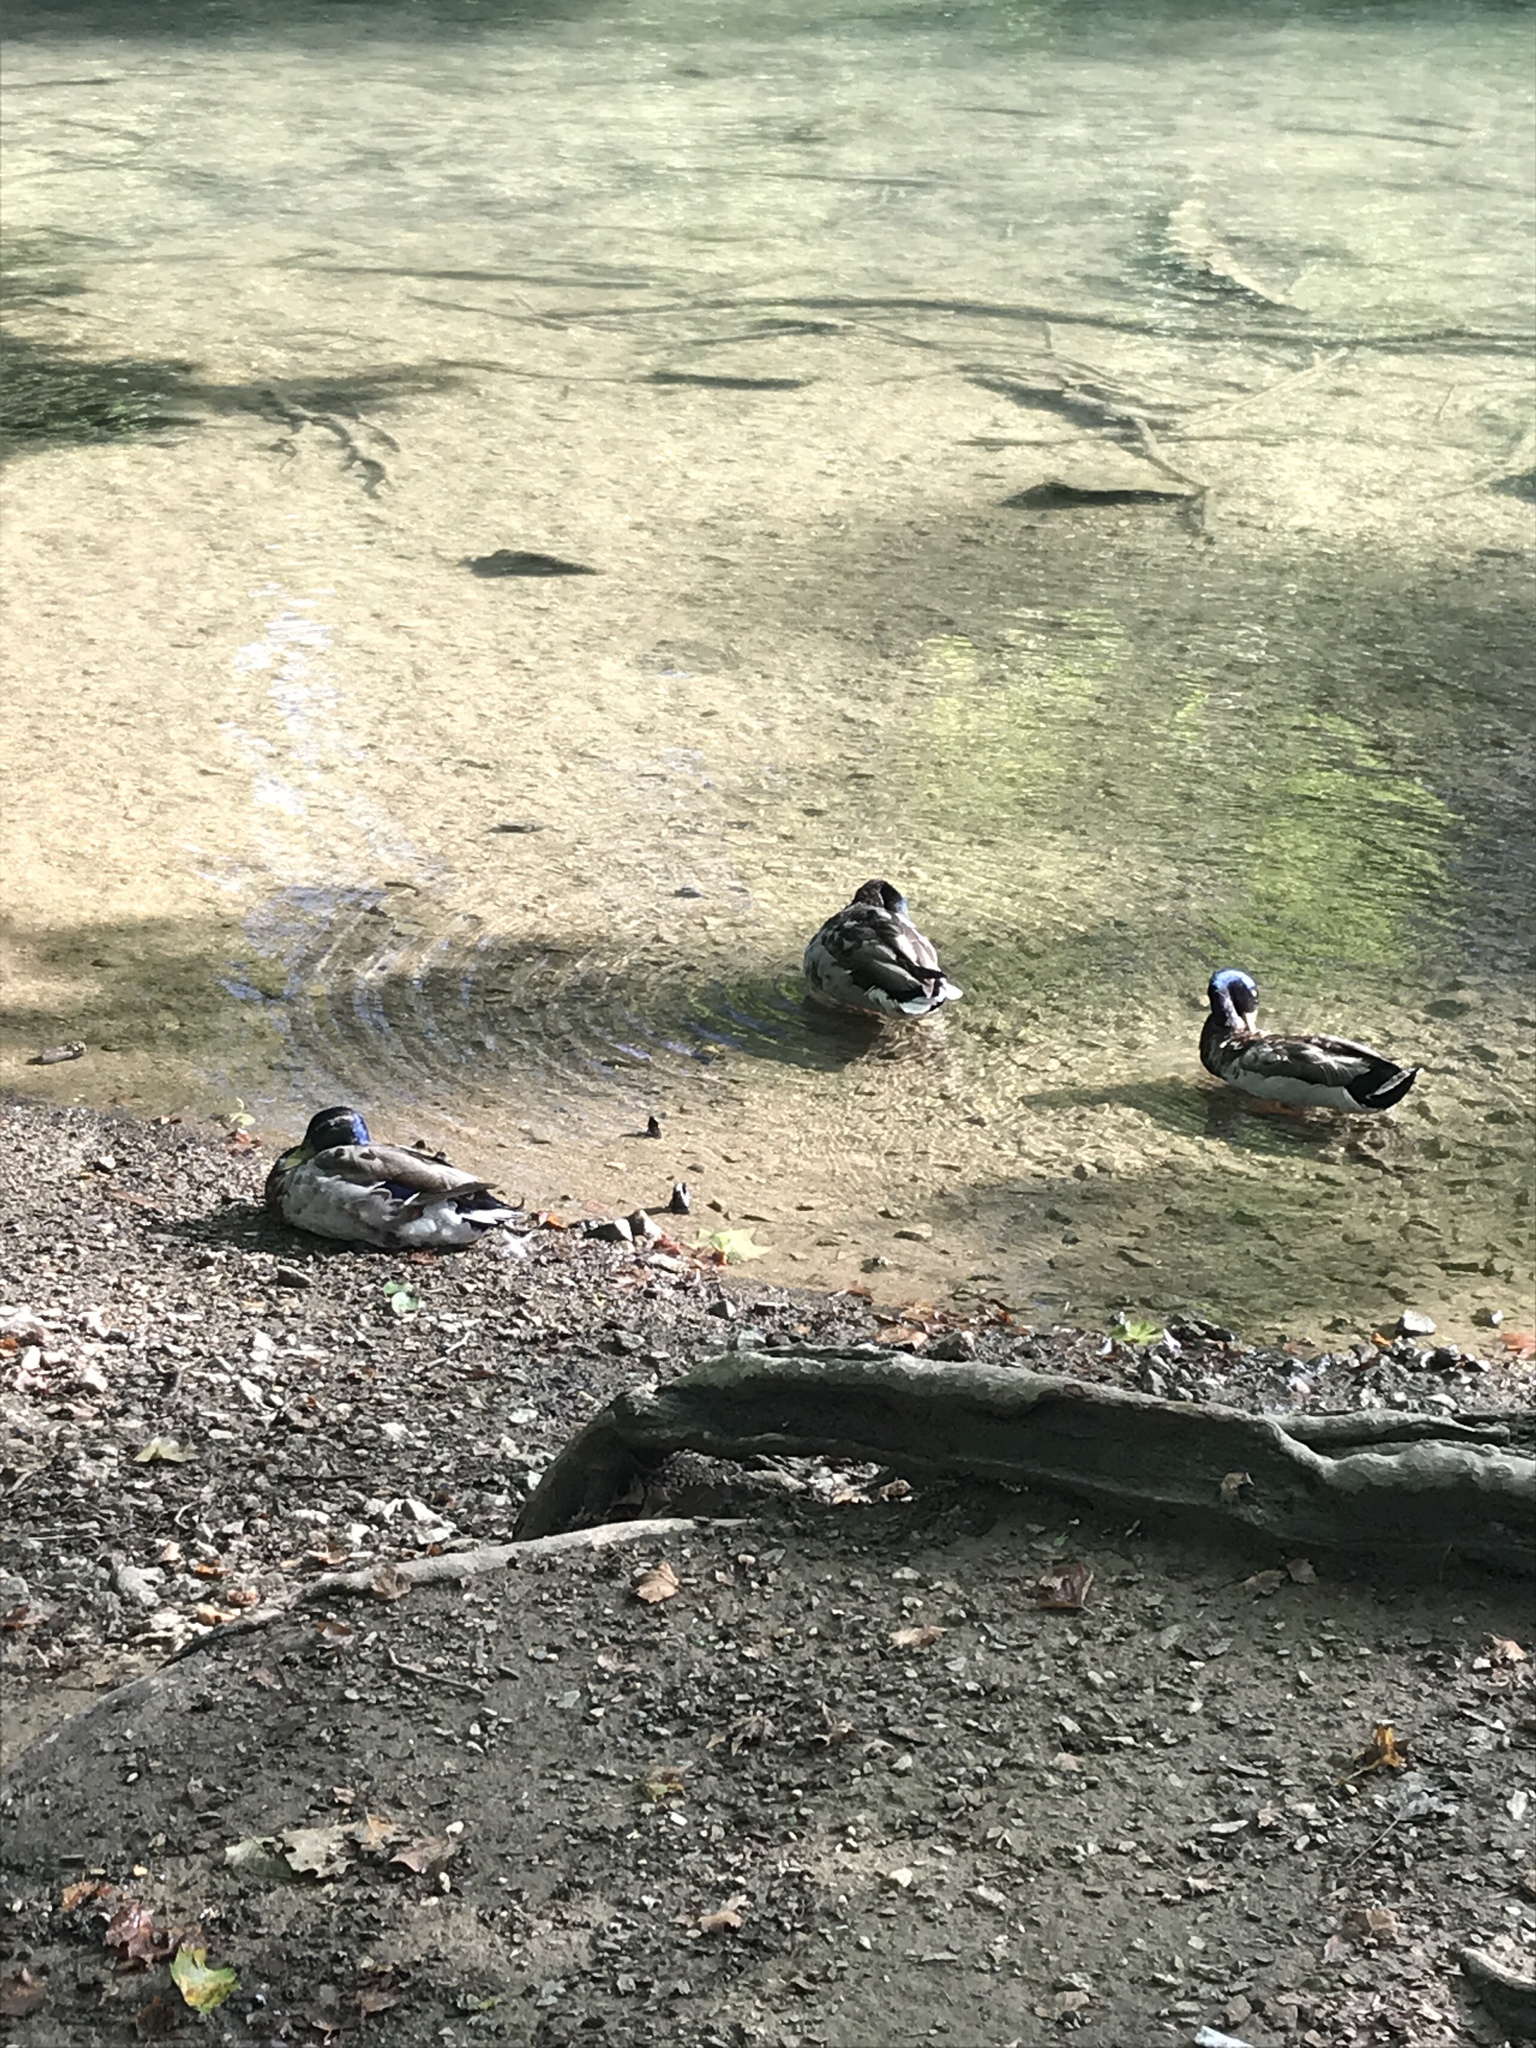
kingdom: Animalia
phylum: Chordata
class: Aves
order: Anseriformes
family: Anatidae
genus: Anas
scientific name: Anas platyrhynchos
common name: Mallard
